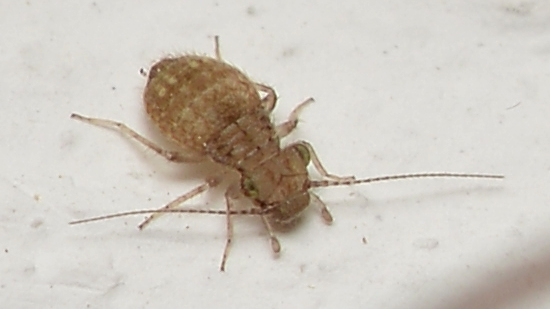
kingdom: Animalia
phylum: Arthropoda
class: Insecta
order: Psocodea
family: Trogiidae
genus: Cerobasis
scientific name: Cerobasis guestfalica
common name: Book lice
